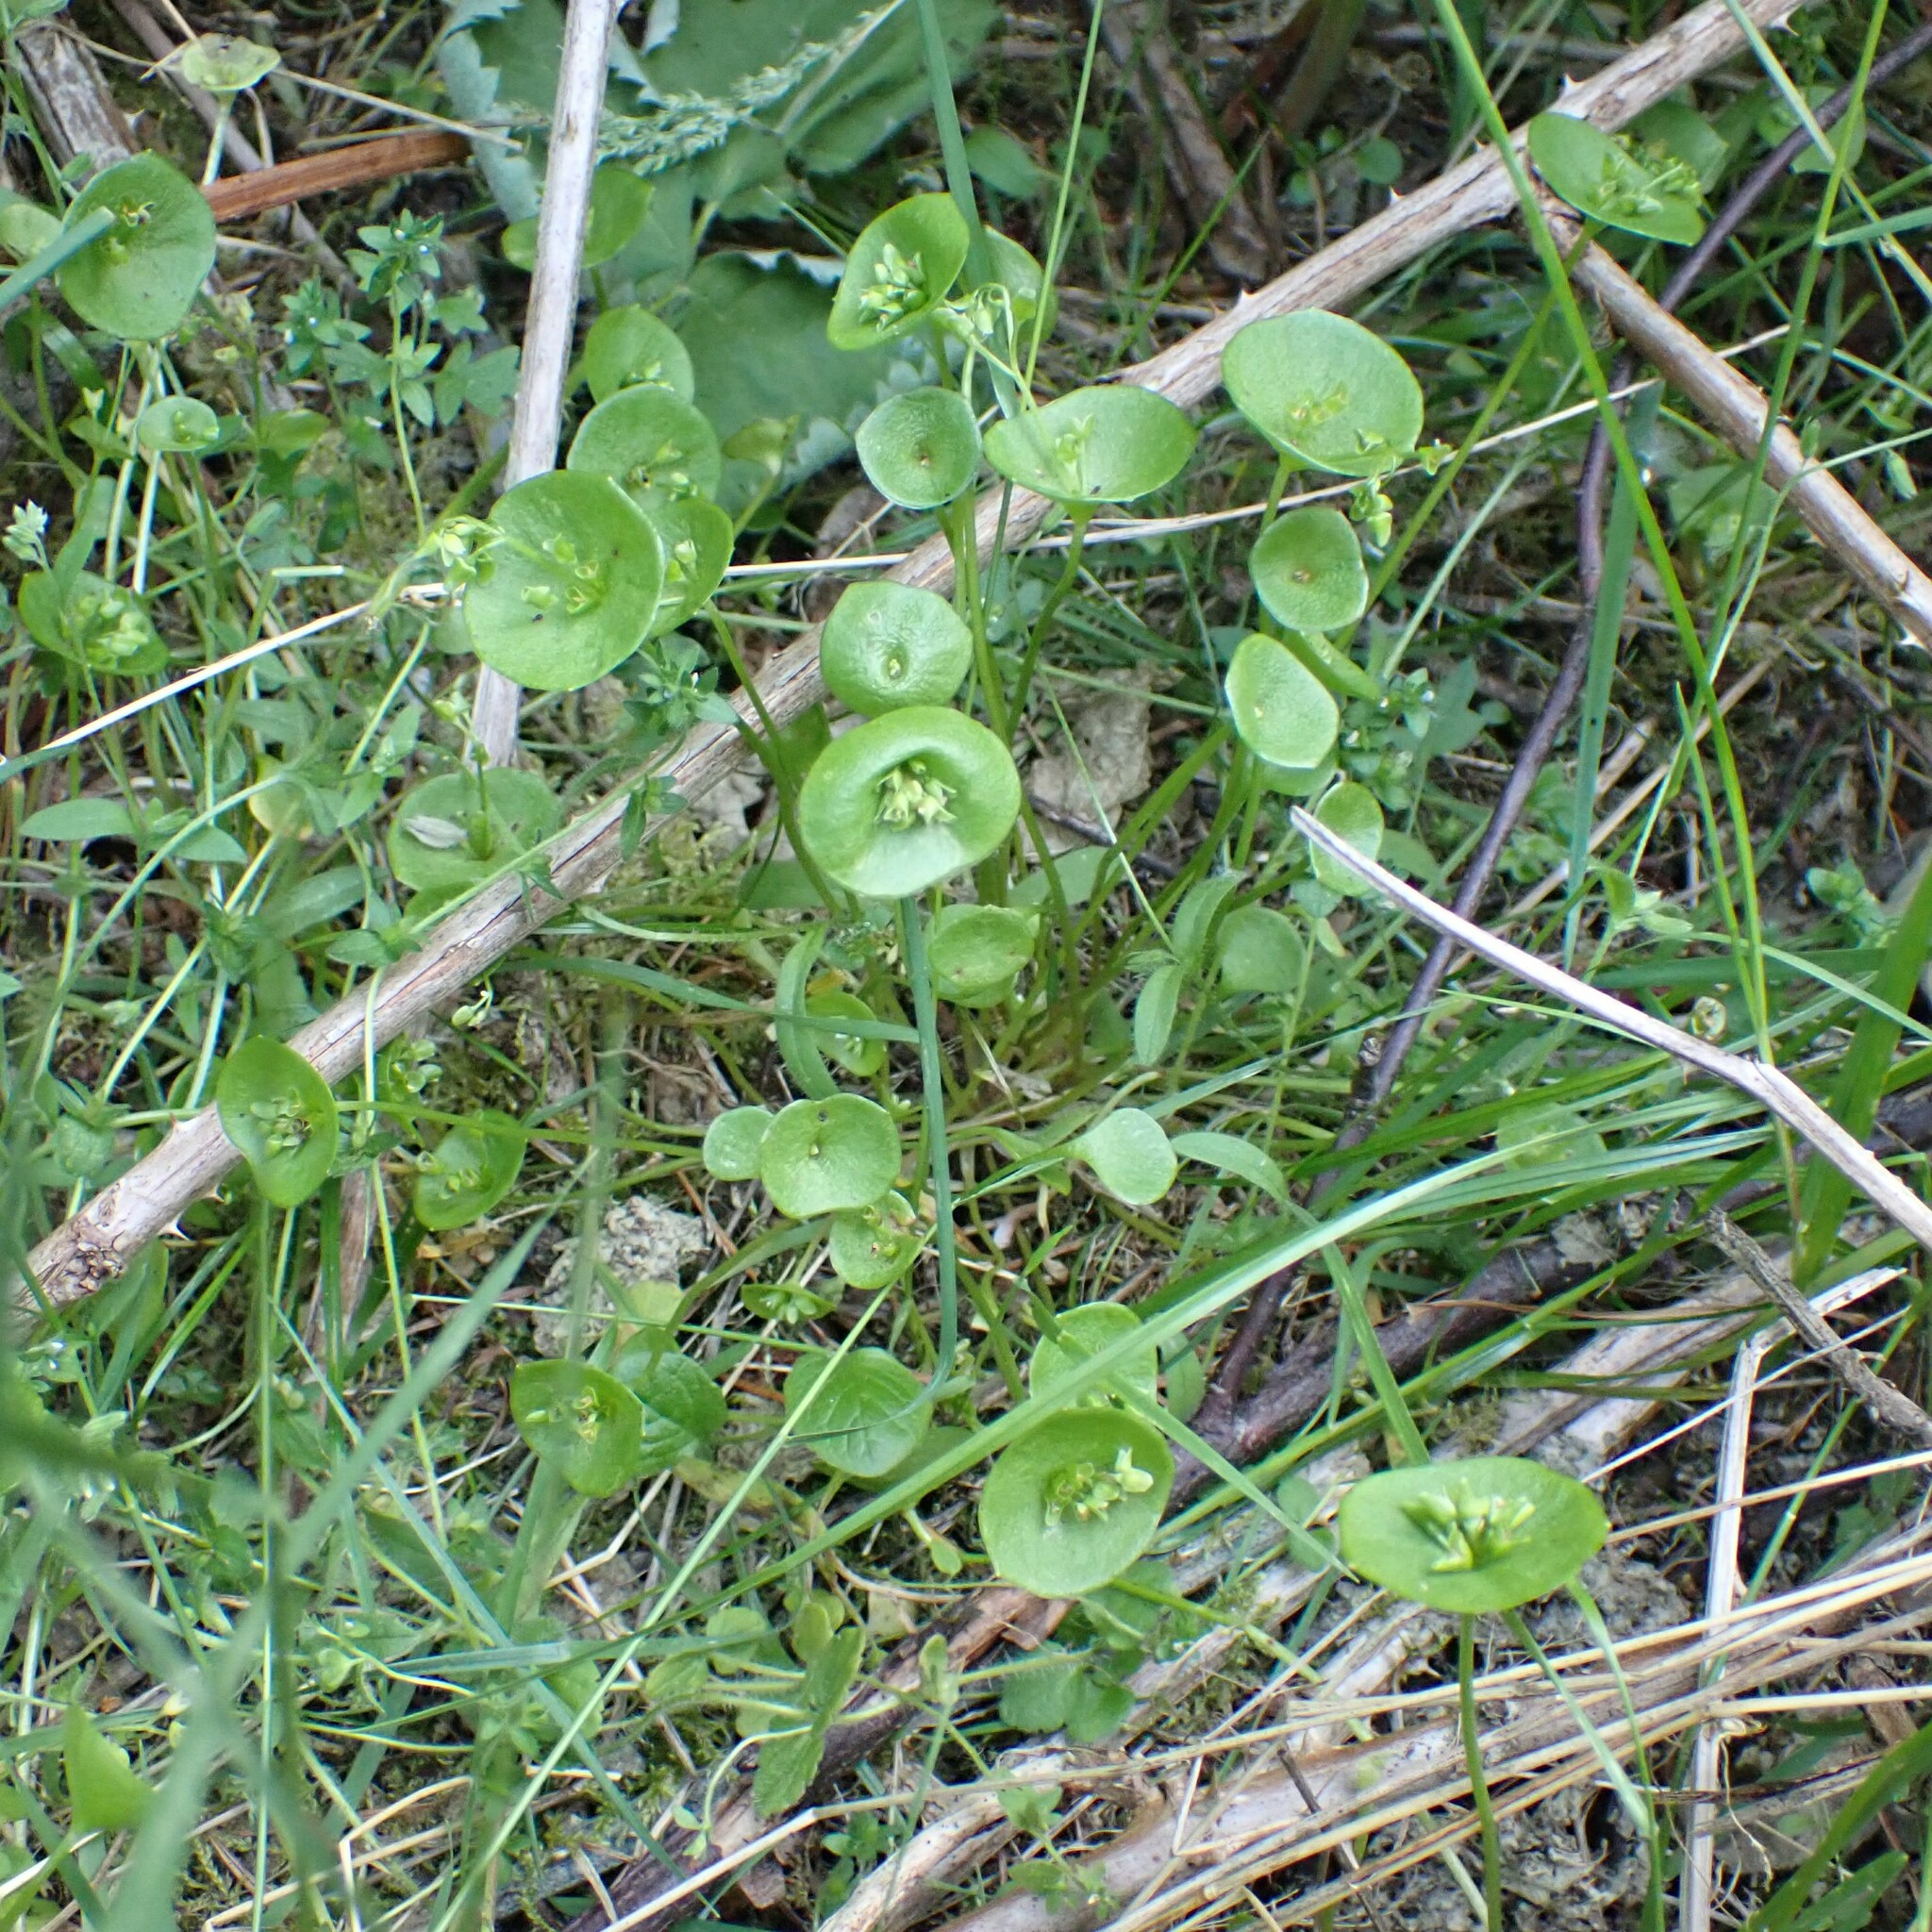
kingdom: Plantae
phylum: Tracheophyta
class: Magnoliopsida
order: Caryophyllales
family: Montiaceae
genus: Claytonia
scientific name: Claytonia perfoliata
